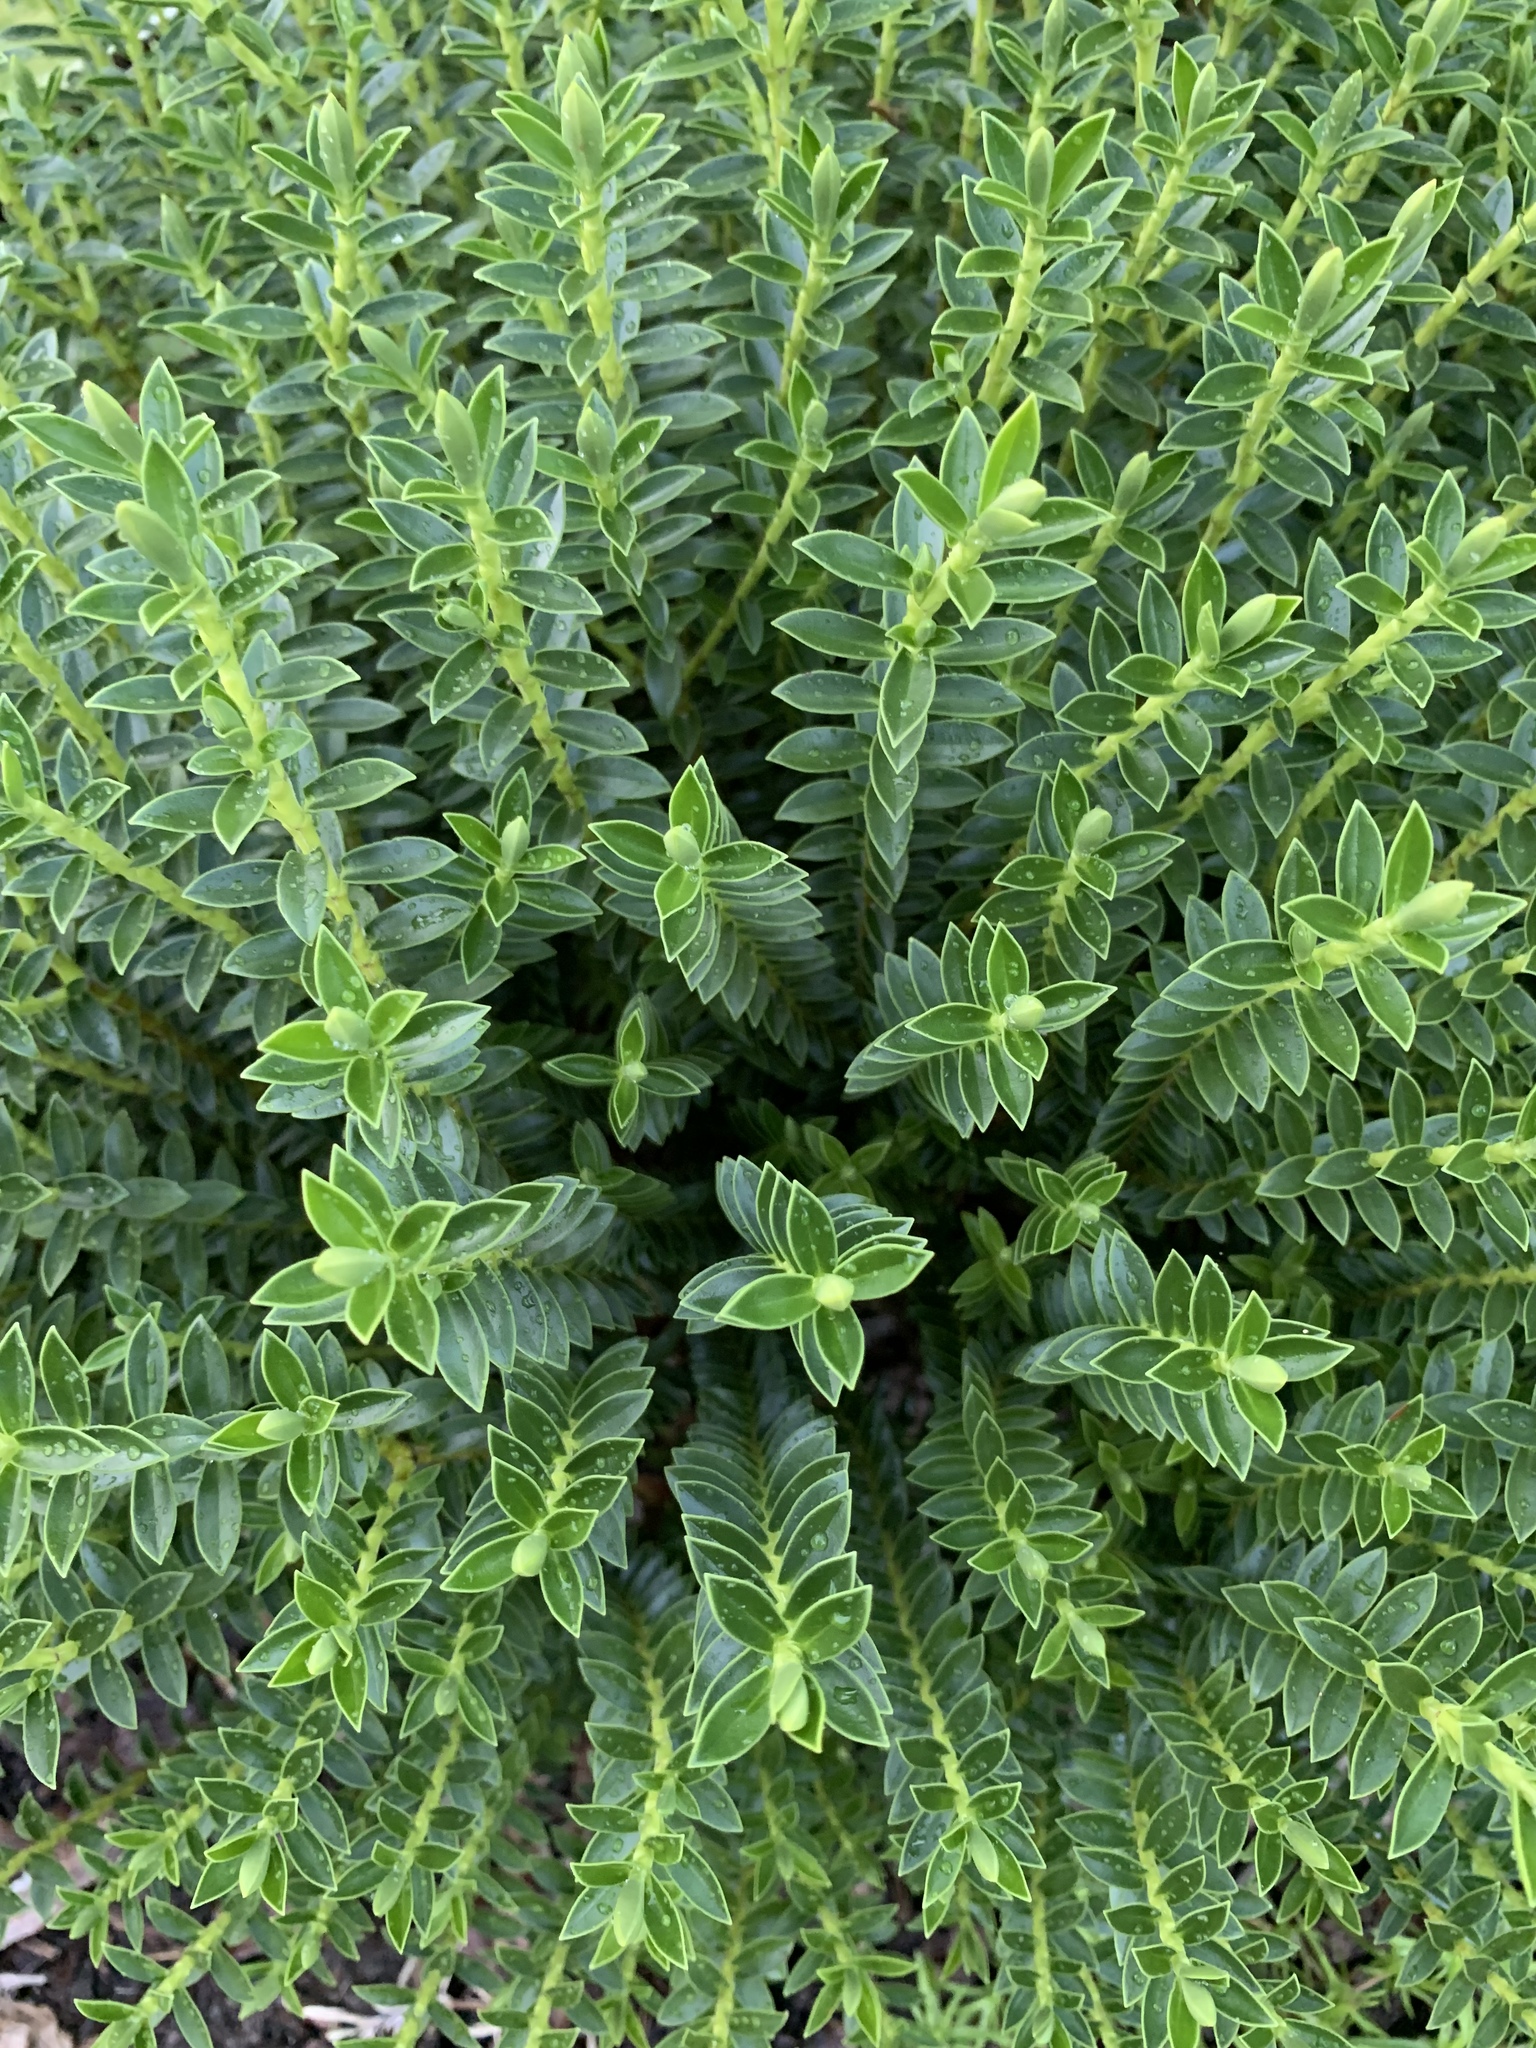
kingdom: Plantae
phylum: Tracheophyta
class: Magnoliopsida
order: Lamiales
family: Plantaginaceae
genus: Veronica
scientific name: Veronica odora
